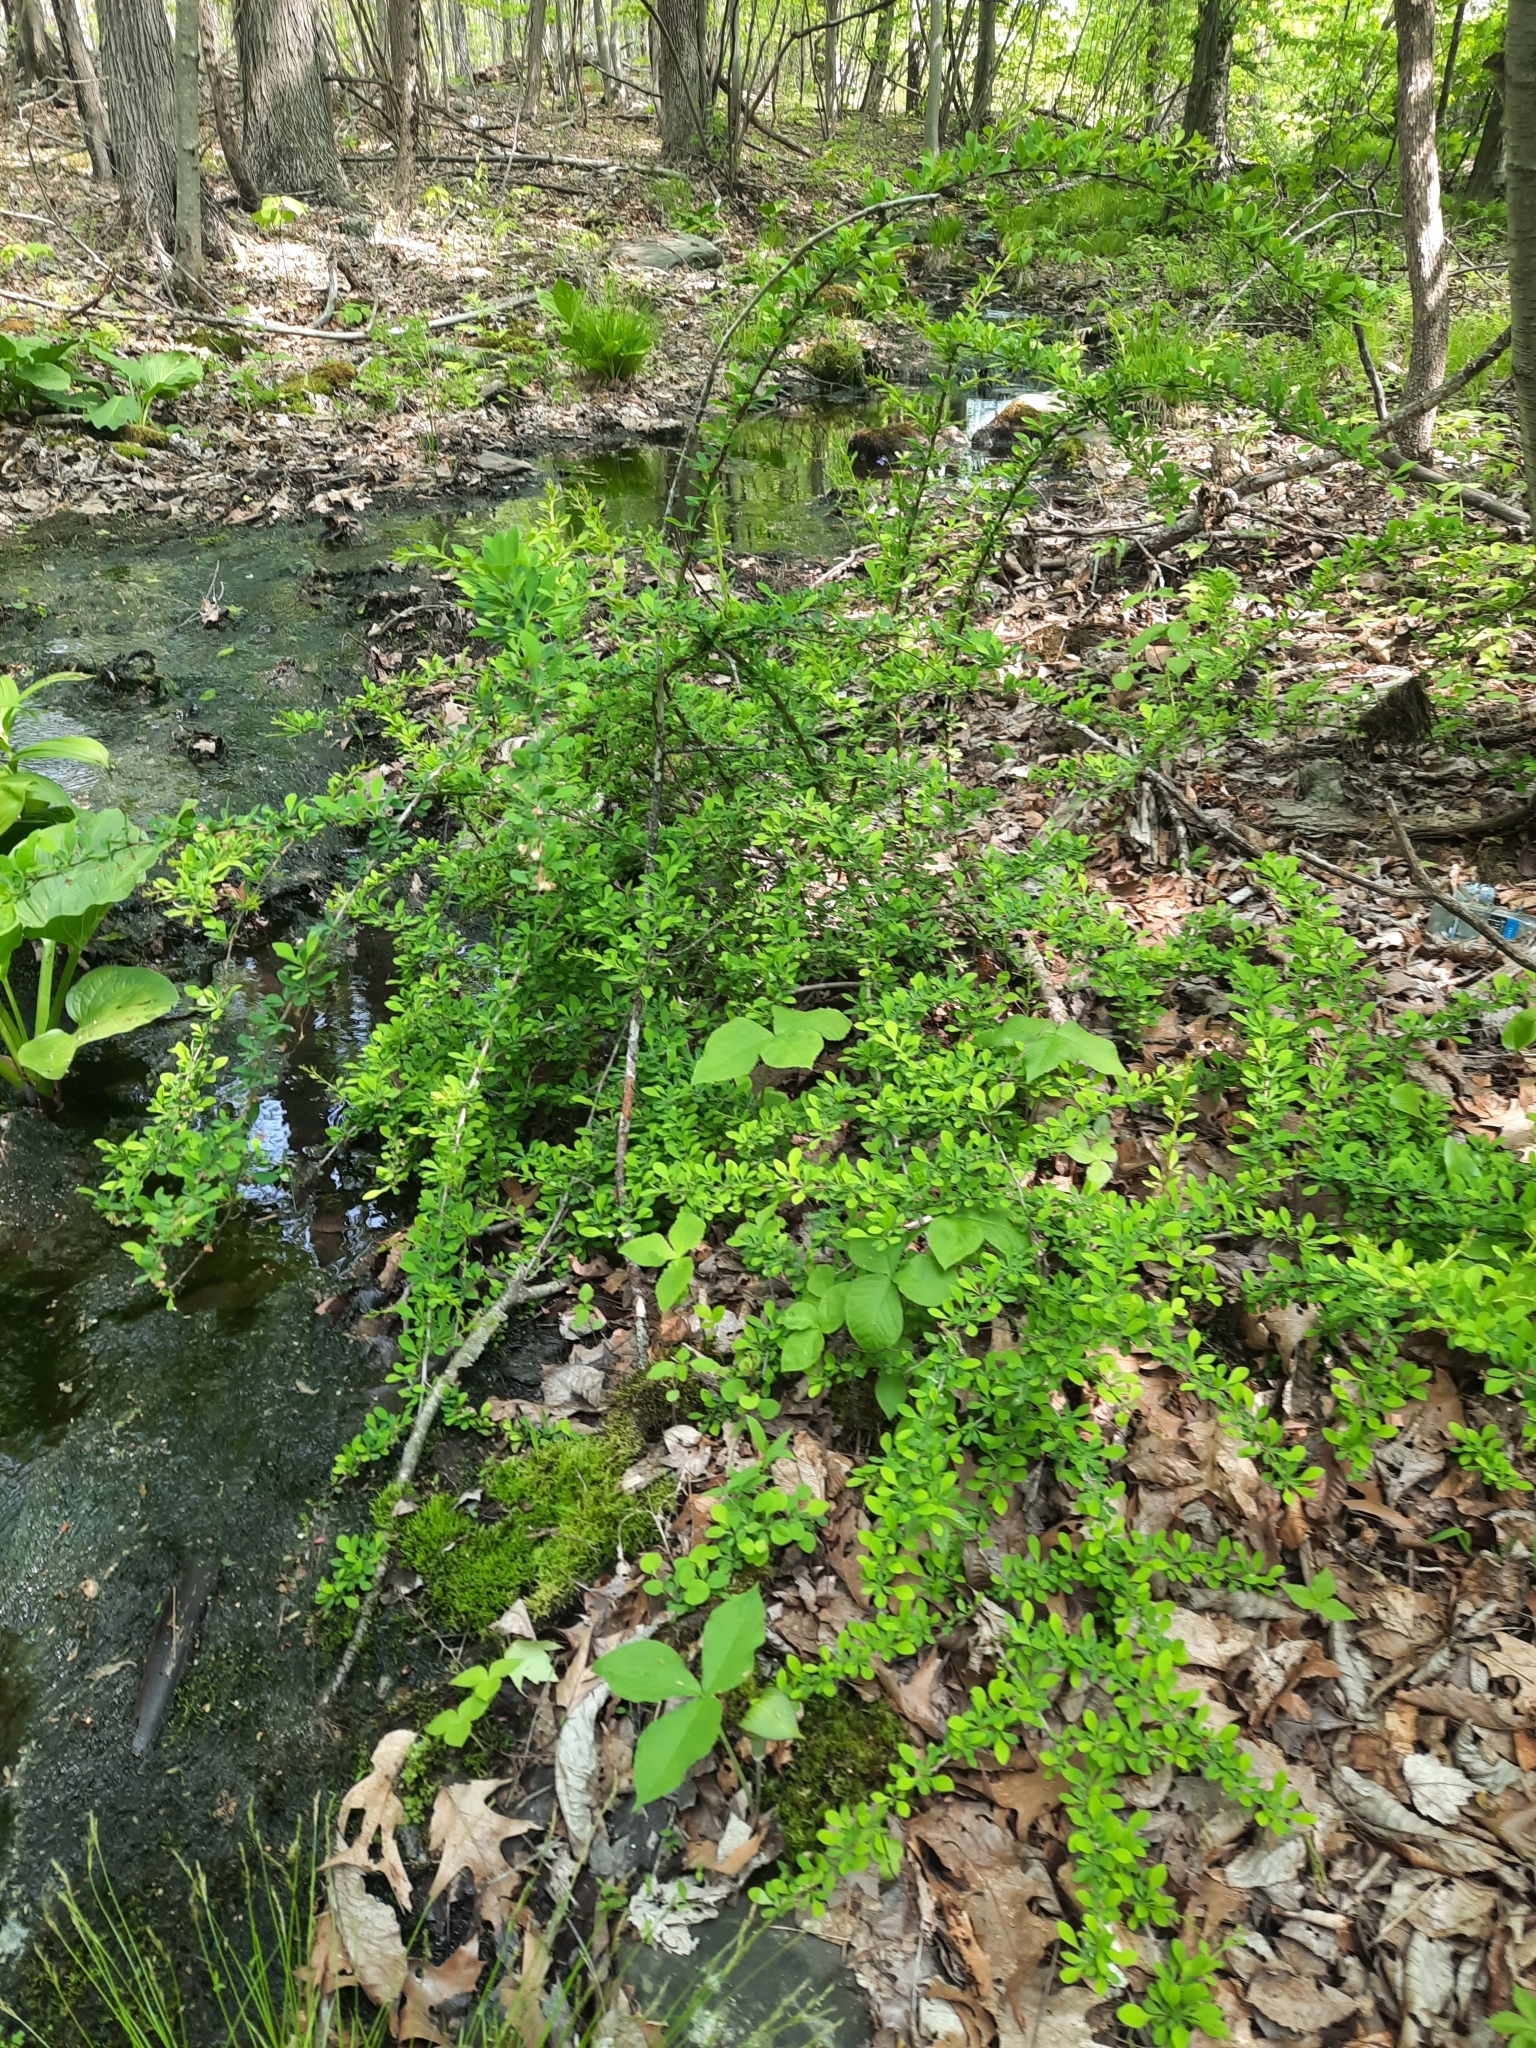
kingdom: Plantae
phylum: Tracheophyta
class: Magnoliopsida
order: Ranunculales
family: Berberidaceae
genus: Berberis
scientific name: Berberis thunbergii
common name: Japanese barberry
